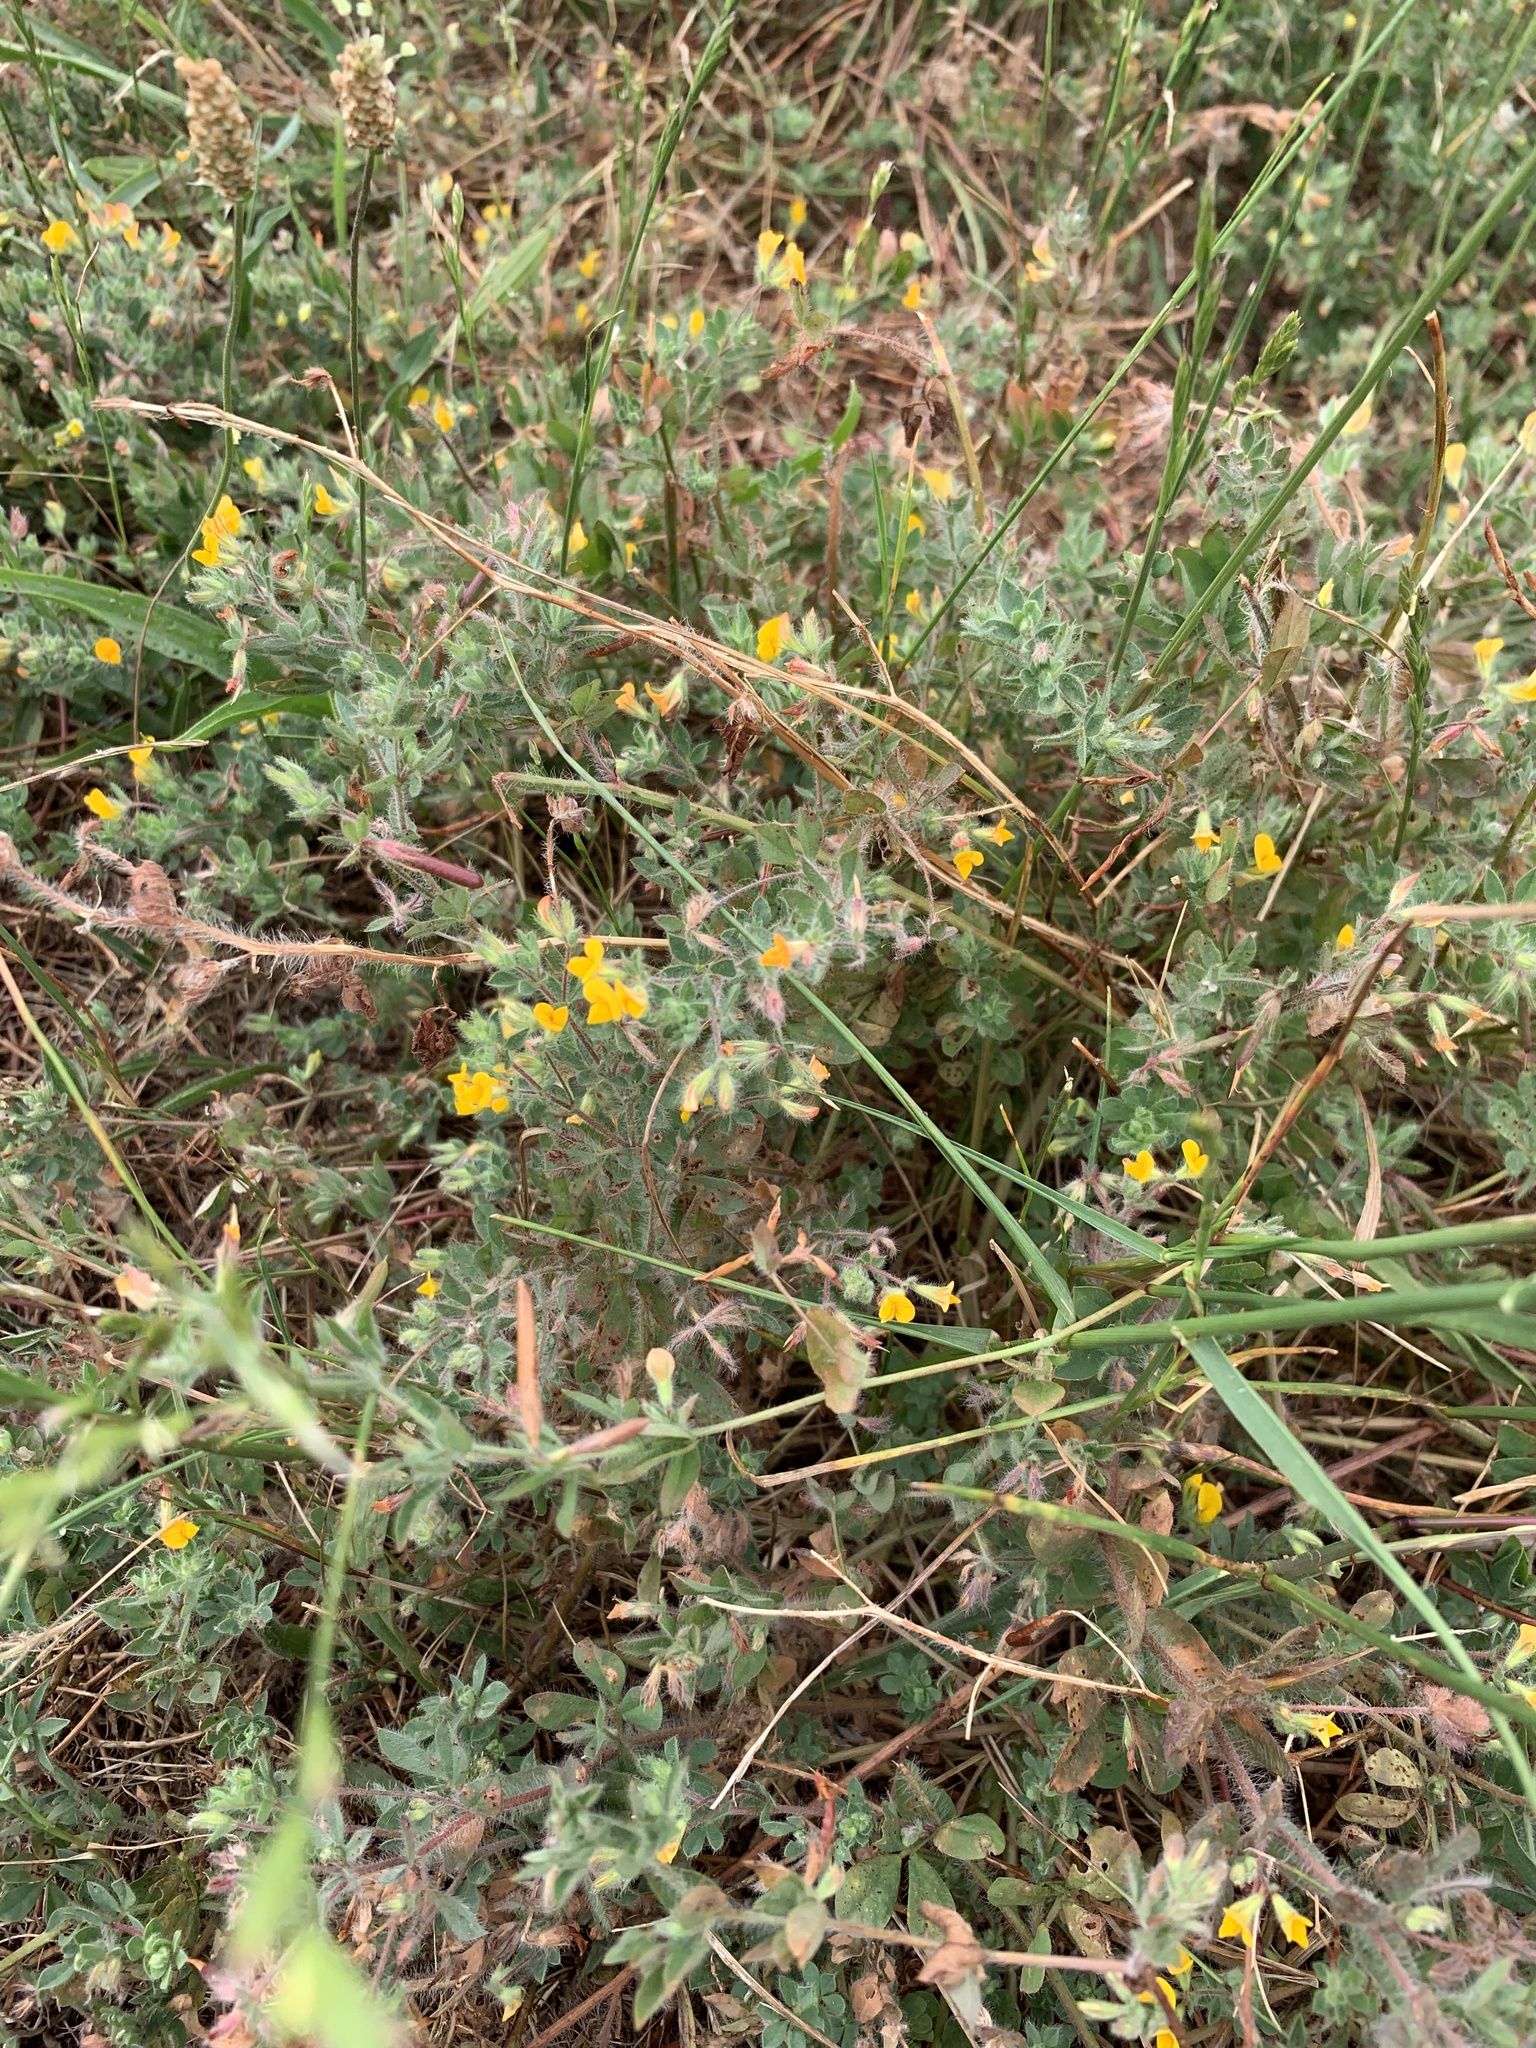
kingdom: Plantae
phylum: Tracheophyta
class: Magnoliopsida
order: Fabales
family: Fabaceae
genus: Lotus
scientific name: Lotus subbiflorus
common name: Hairy bird's-foot trefoil
